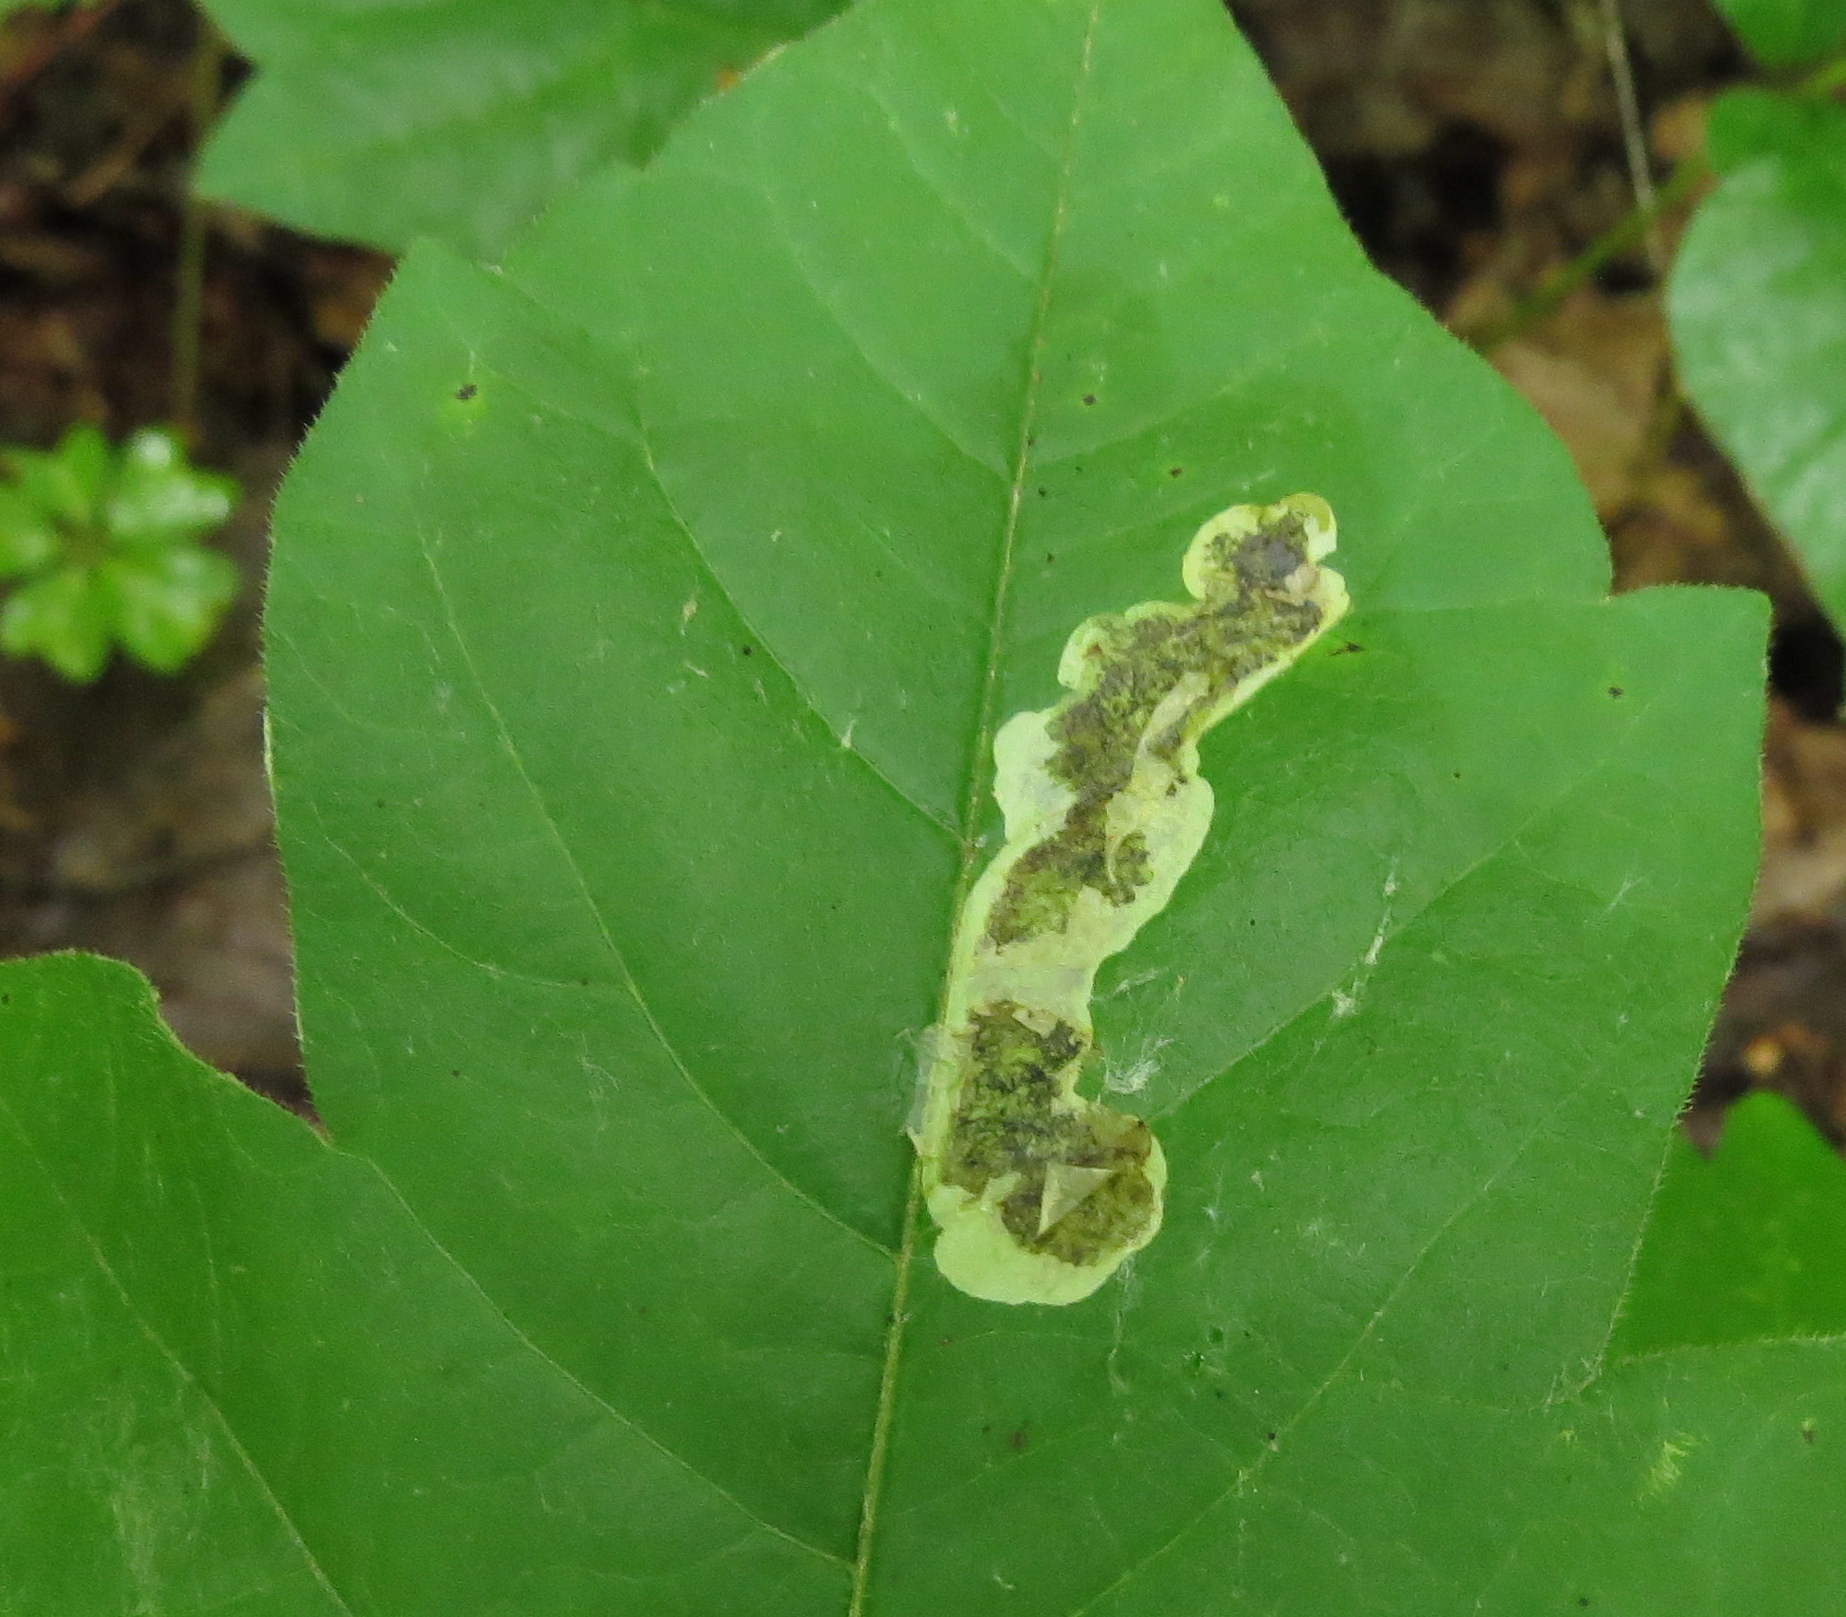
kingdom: Animalia
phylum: Arthropoda
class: Insecta
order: Lepidoptera
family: Gracillariidae
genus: Cameraria
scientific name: Cameraria guttifinitella
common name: Poison ivy leaf-miner moth
